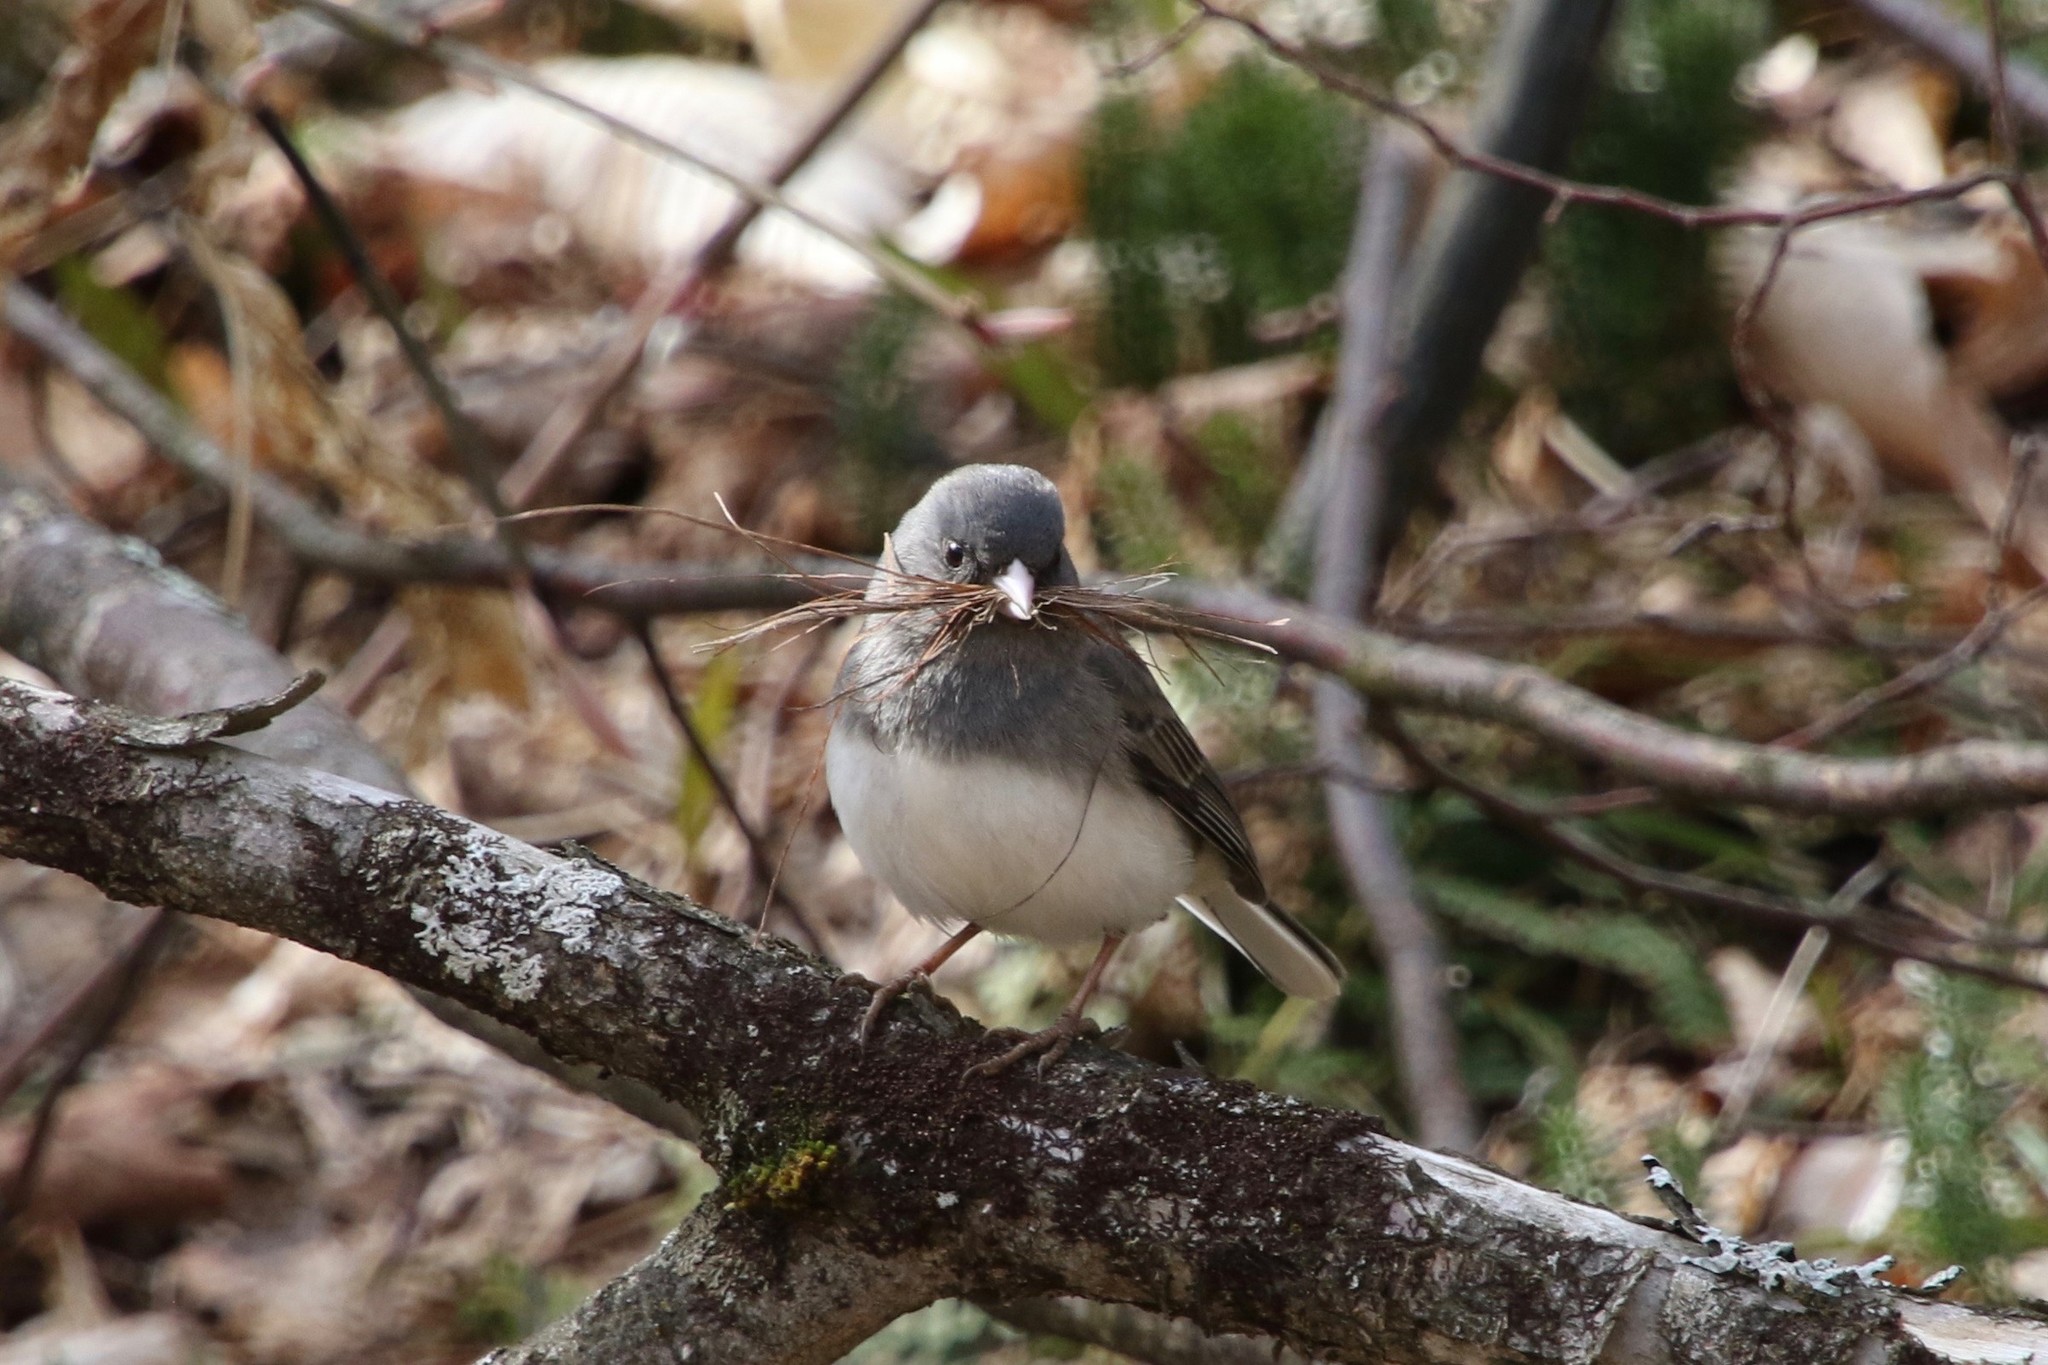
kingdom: Animalia
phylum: Chordata
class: Aves
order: Passeriformes
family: Passerellidae
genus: Junco
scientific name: Junco hyemalis
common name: Dark-eyed junco
